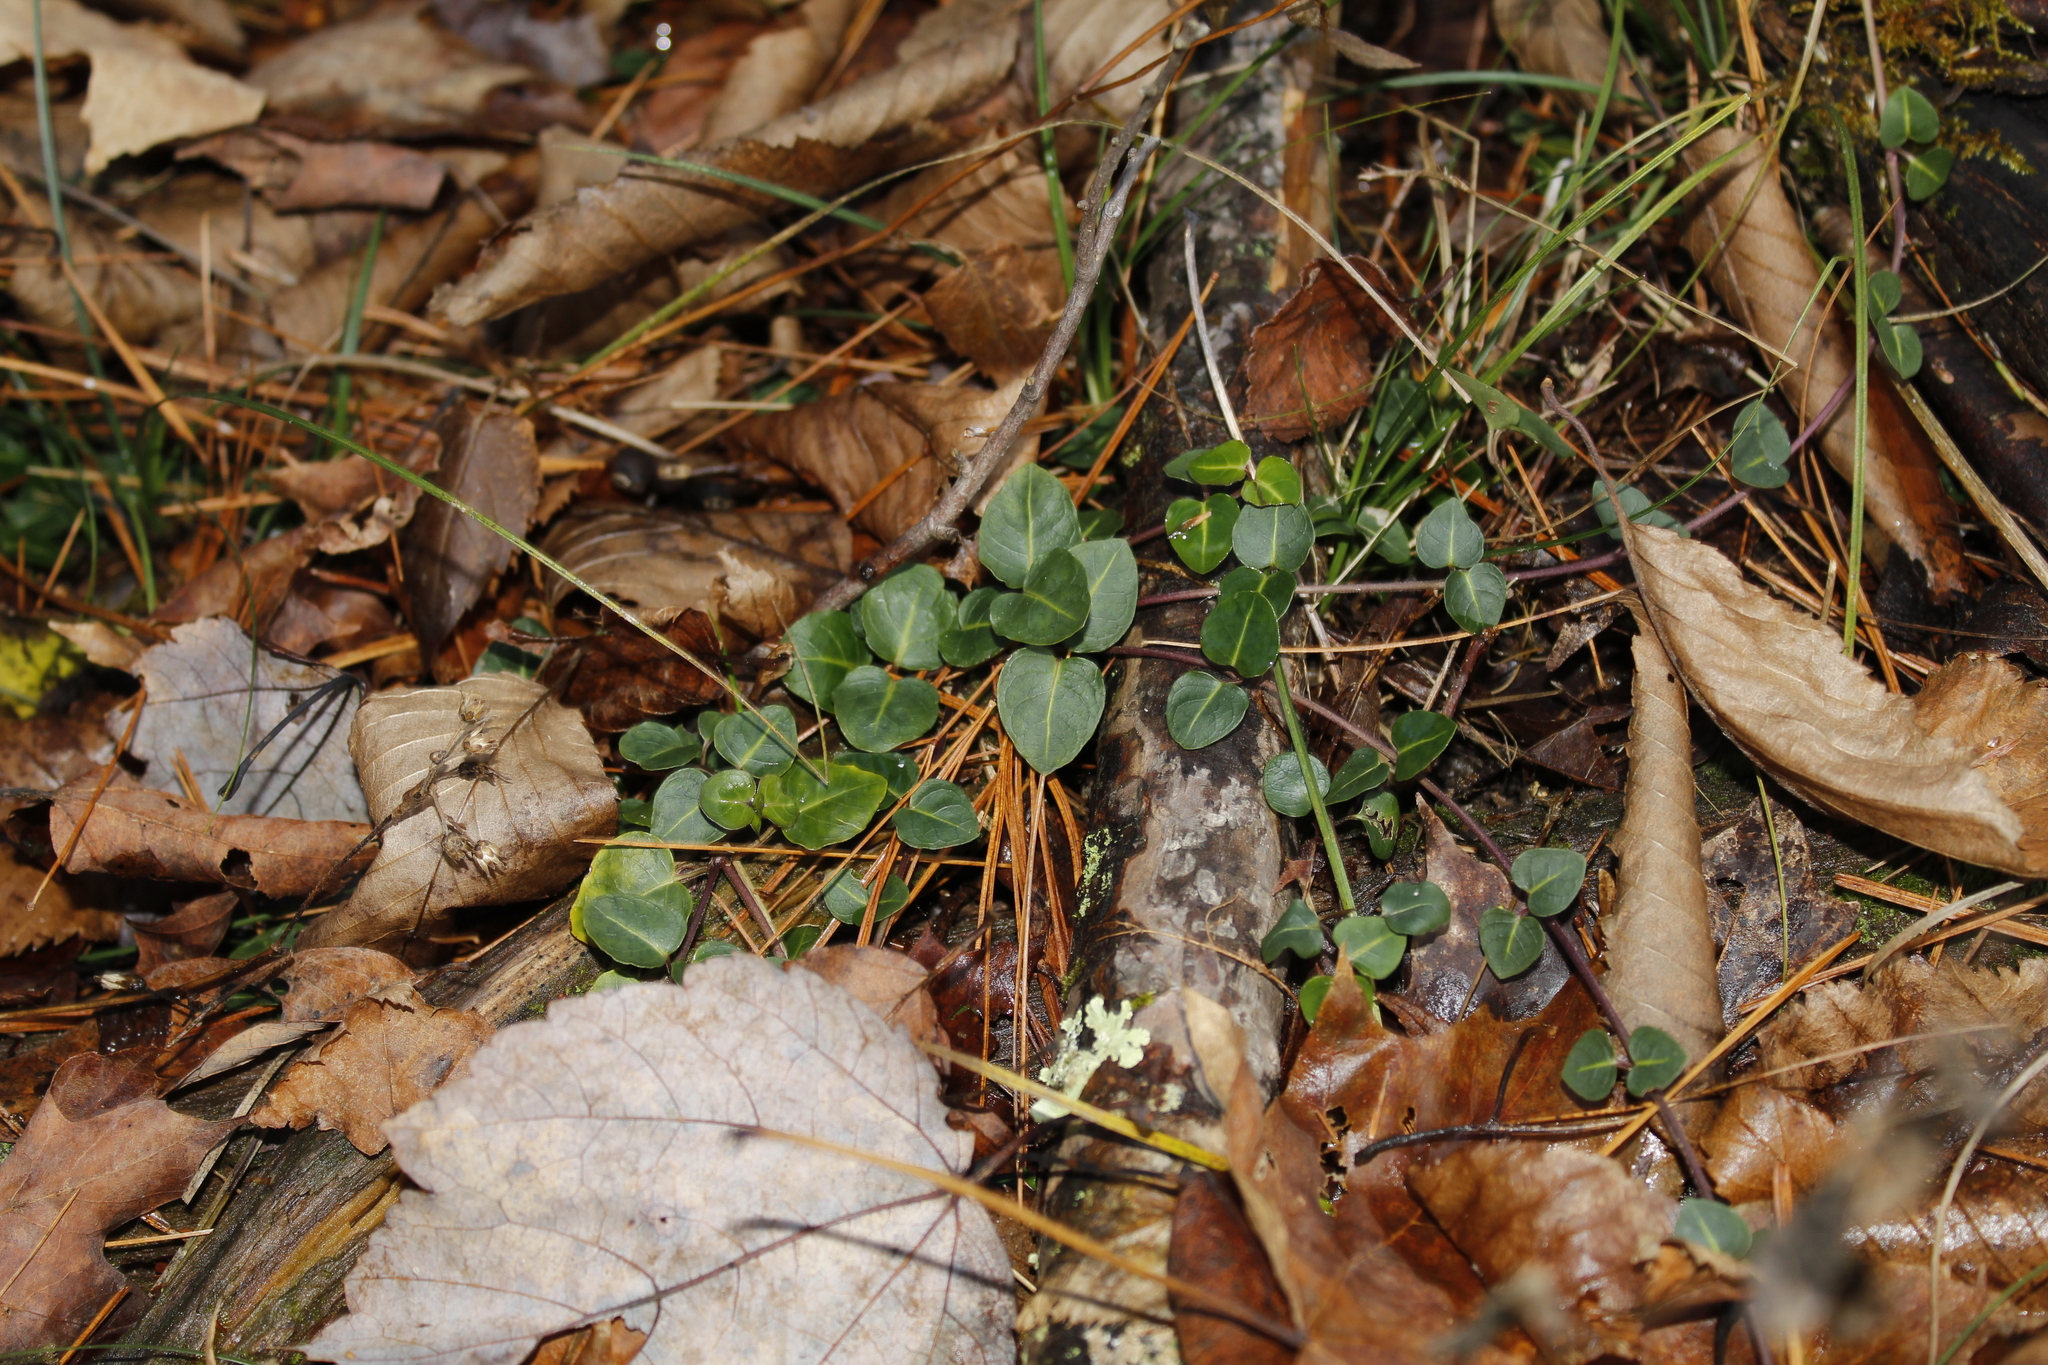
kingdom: Plantae
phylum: Tracheophyta
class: Magnoliopsida
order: Gentianales
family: Rubiaceae
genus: Mitchella
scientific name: Mitchella repens
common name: Partridge-berry
